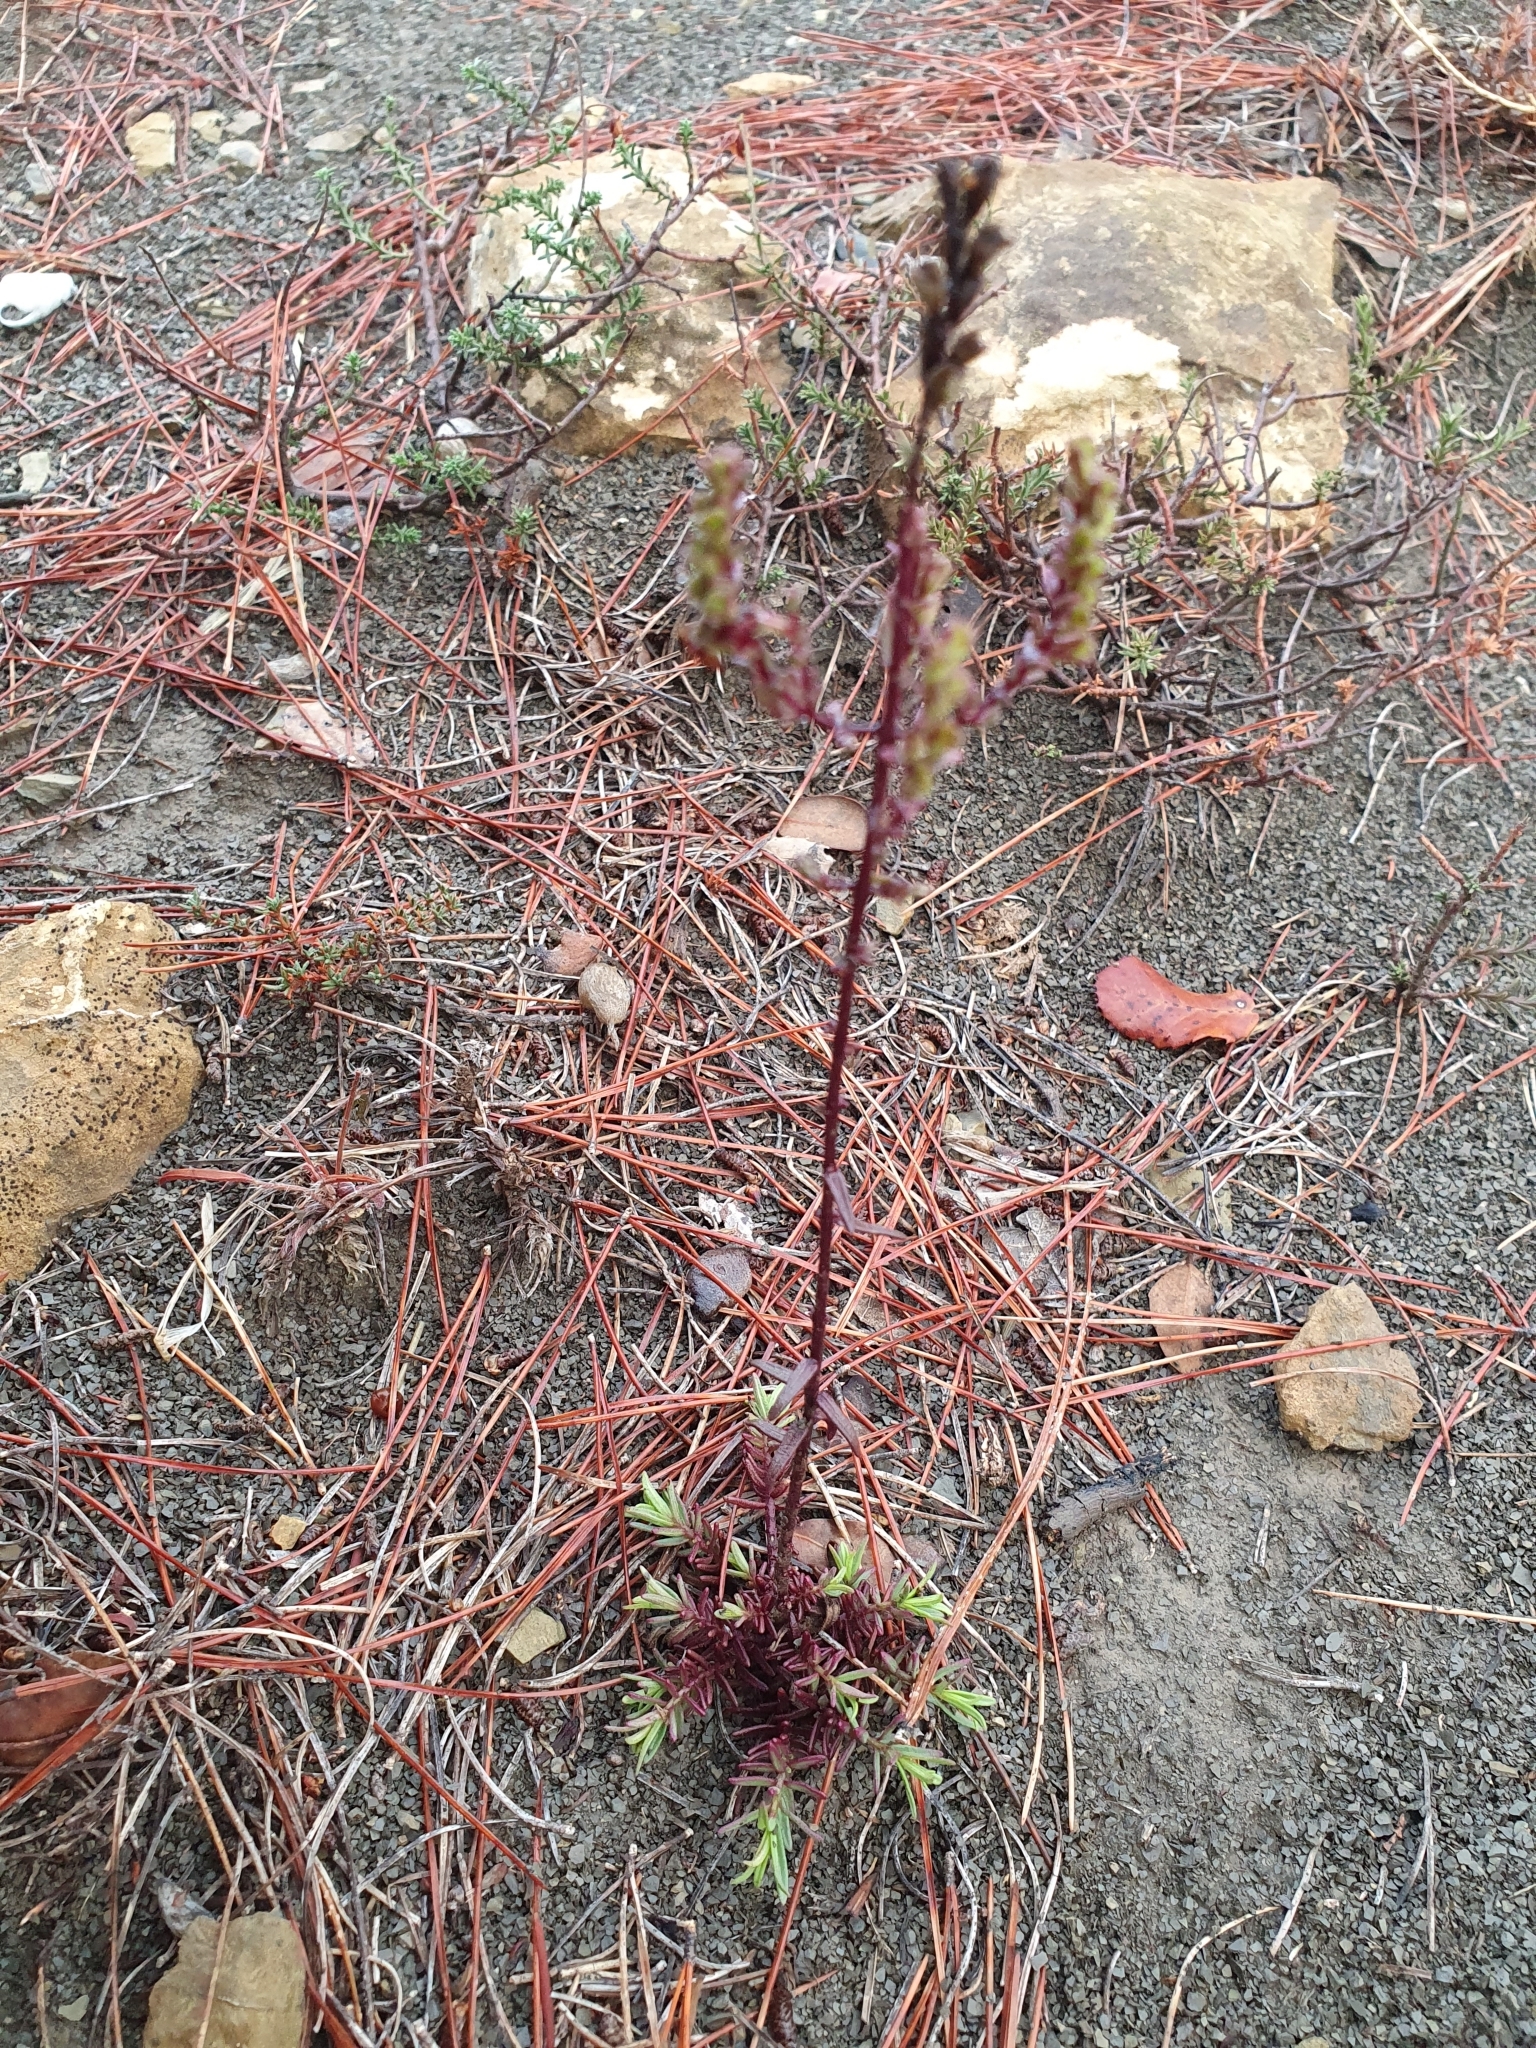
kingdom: Plantae
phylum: Tracheophyta
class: Magnoliopsida
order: Lamiales
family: Orobanchaceae
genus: Odontites
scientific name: Odontites bolligeri
